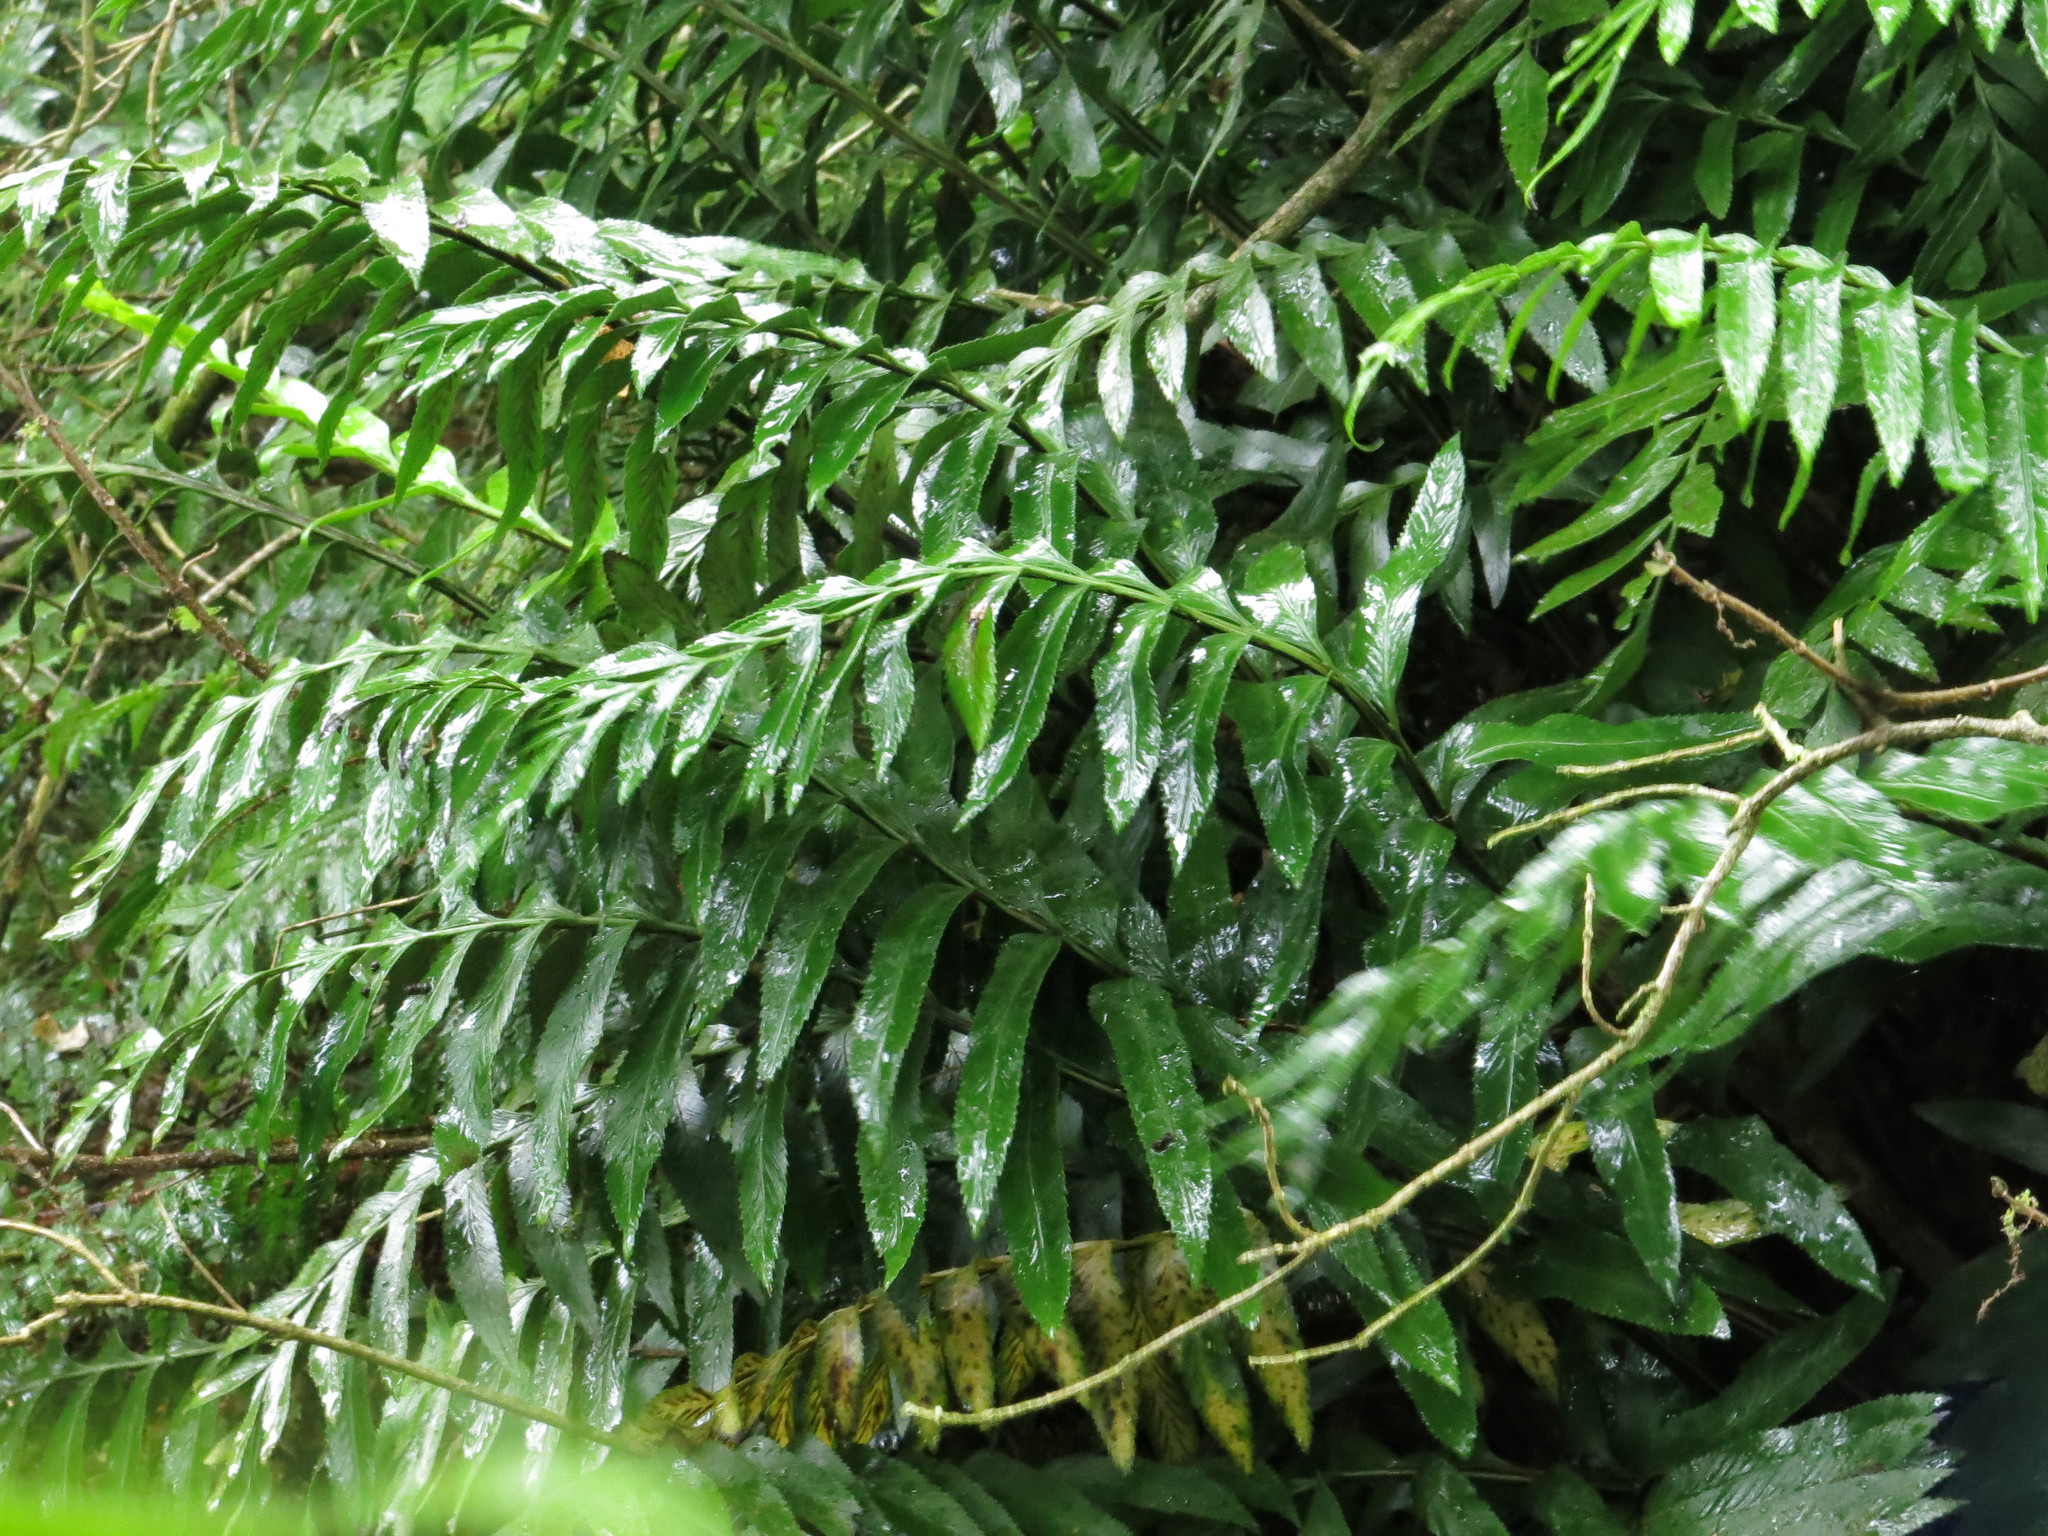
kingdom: Plantae
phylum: Tracheophyta
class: Polypodiopsida
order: Polypodiales
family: Aspleniaceae
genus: Asplenium
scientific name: Asplenium obtusatum
